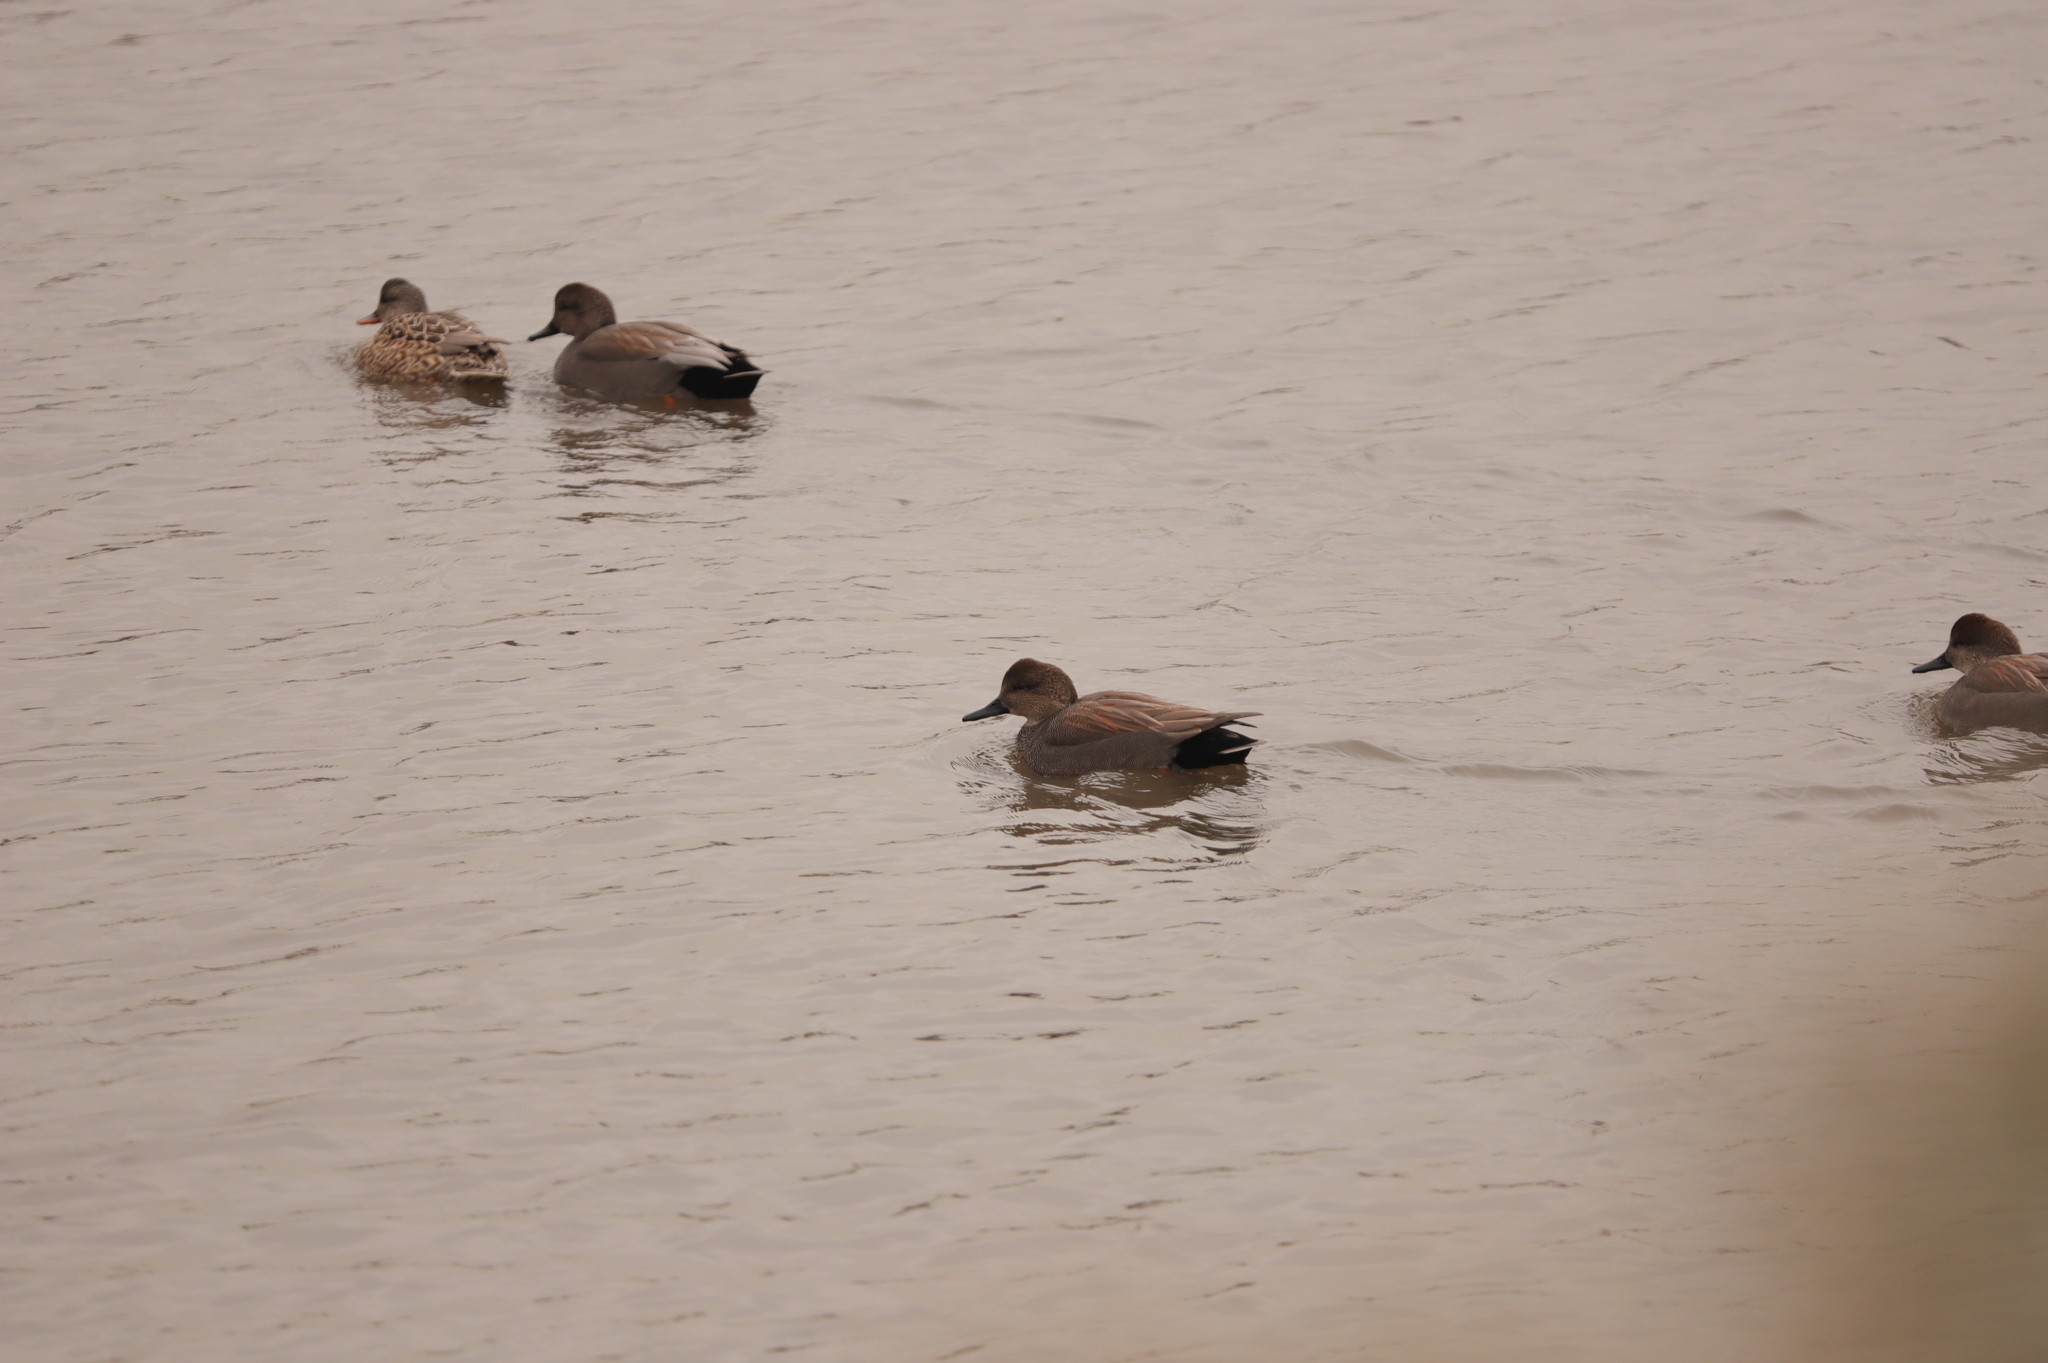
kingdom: Animalia
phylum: Chordata
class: Aves
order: Anseriformes
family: Anatidae
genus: Mareca
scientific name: Mareca strepera
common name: Gadwall
